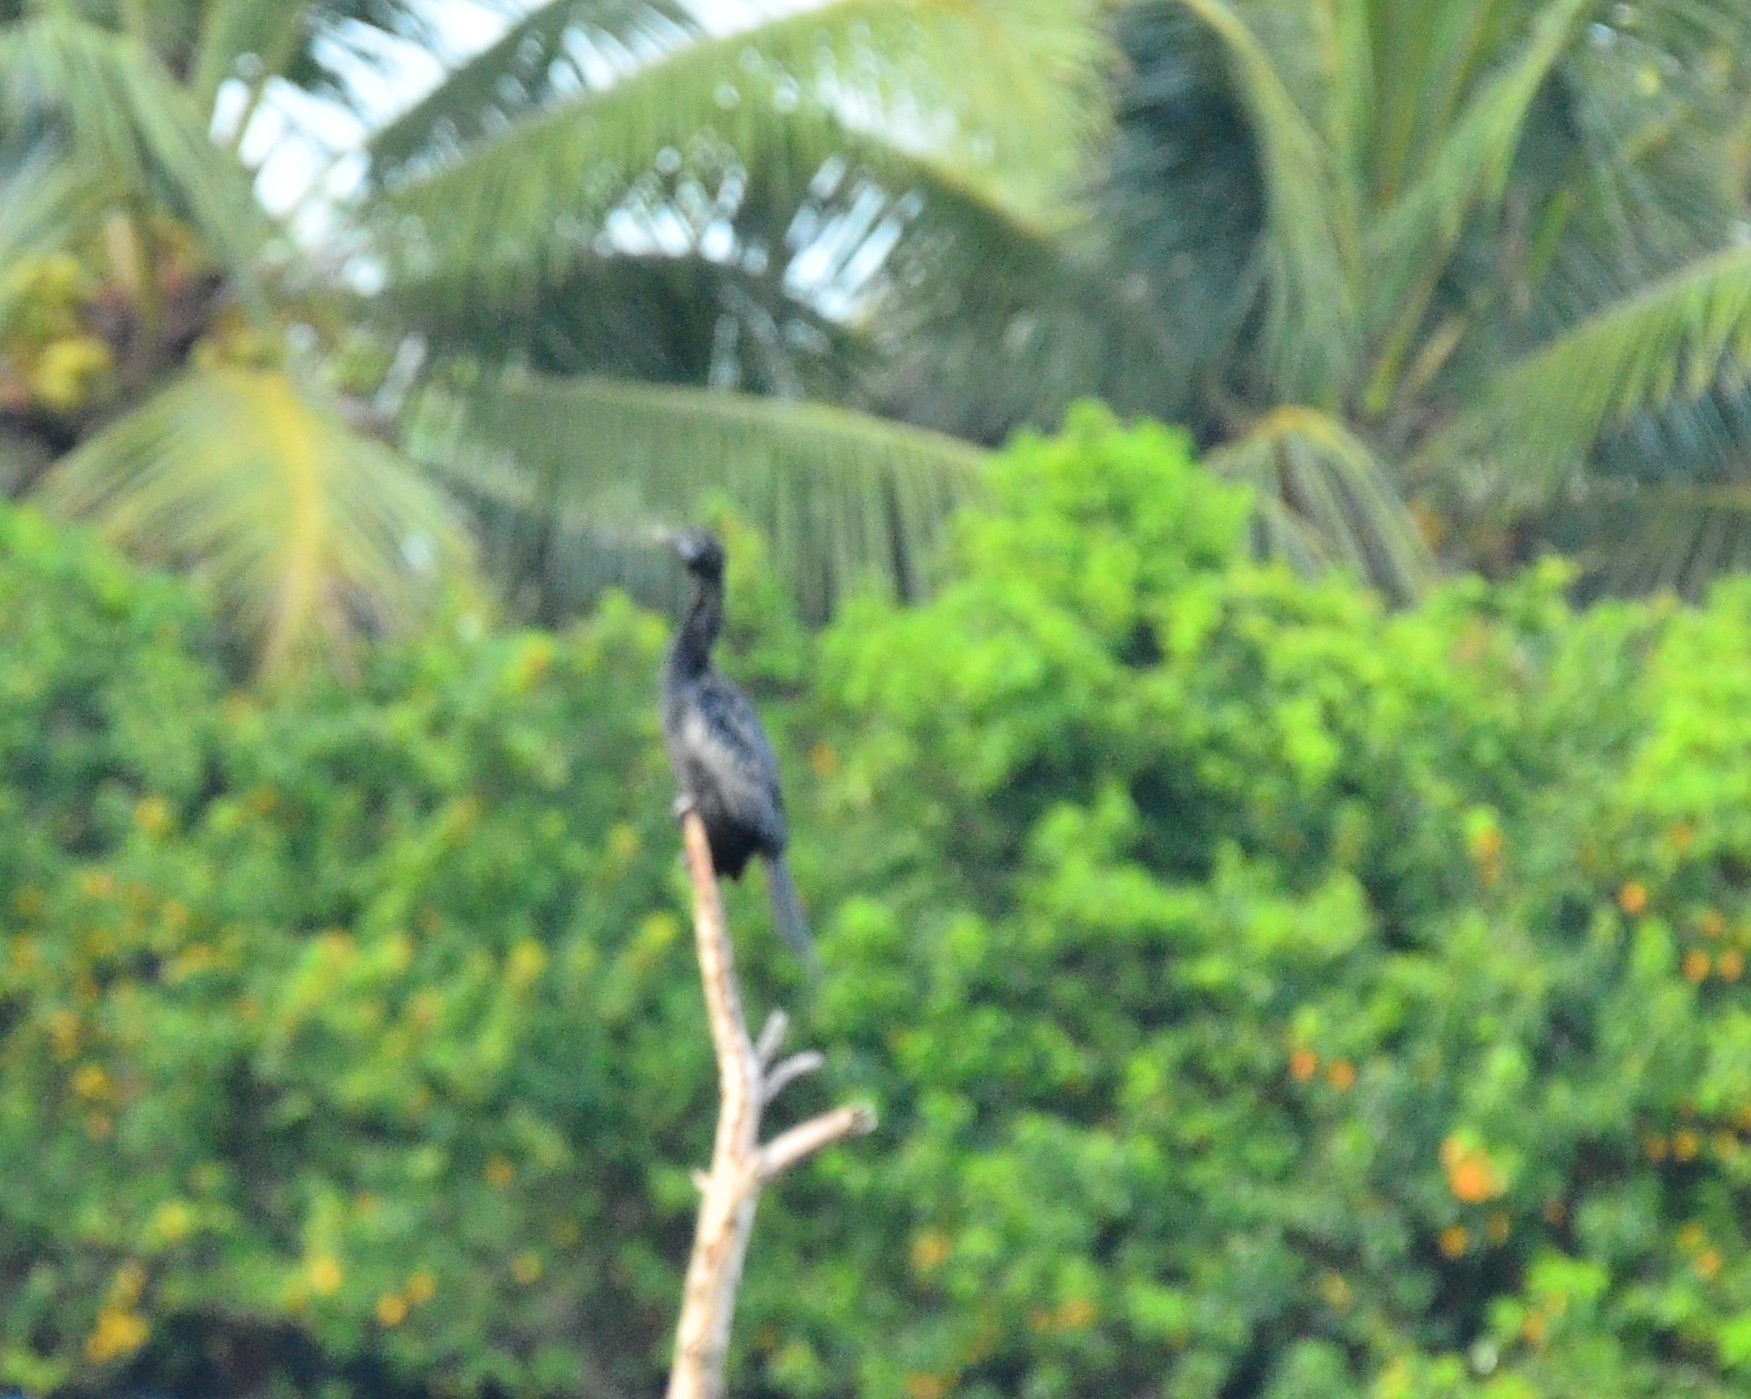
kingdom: Animalia
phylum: Chordata
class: Aves
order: Suliformes
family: Phalacrocoracidae
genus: Microcarbo
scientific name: Microcarbo niger
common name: Little cormorant
